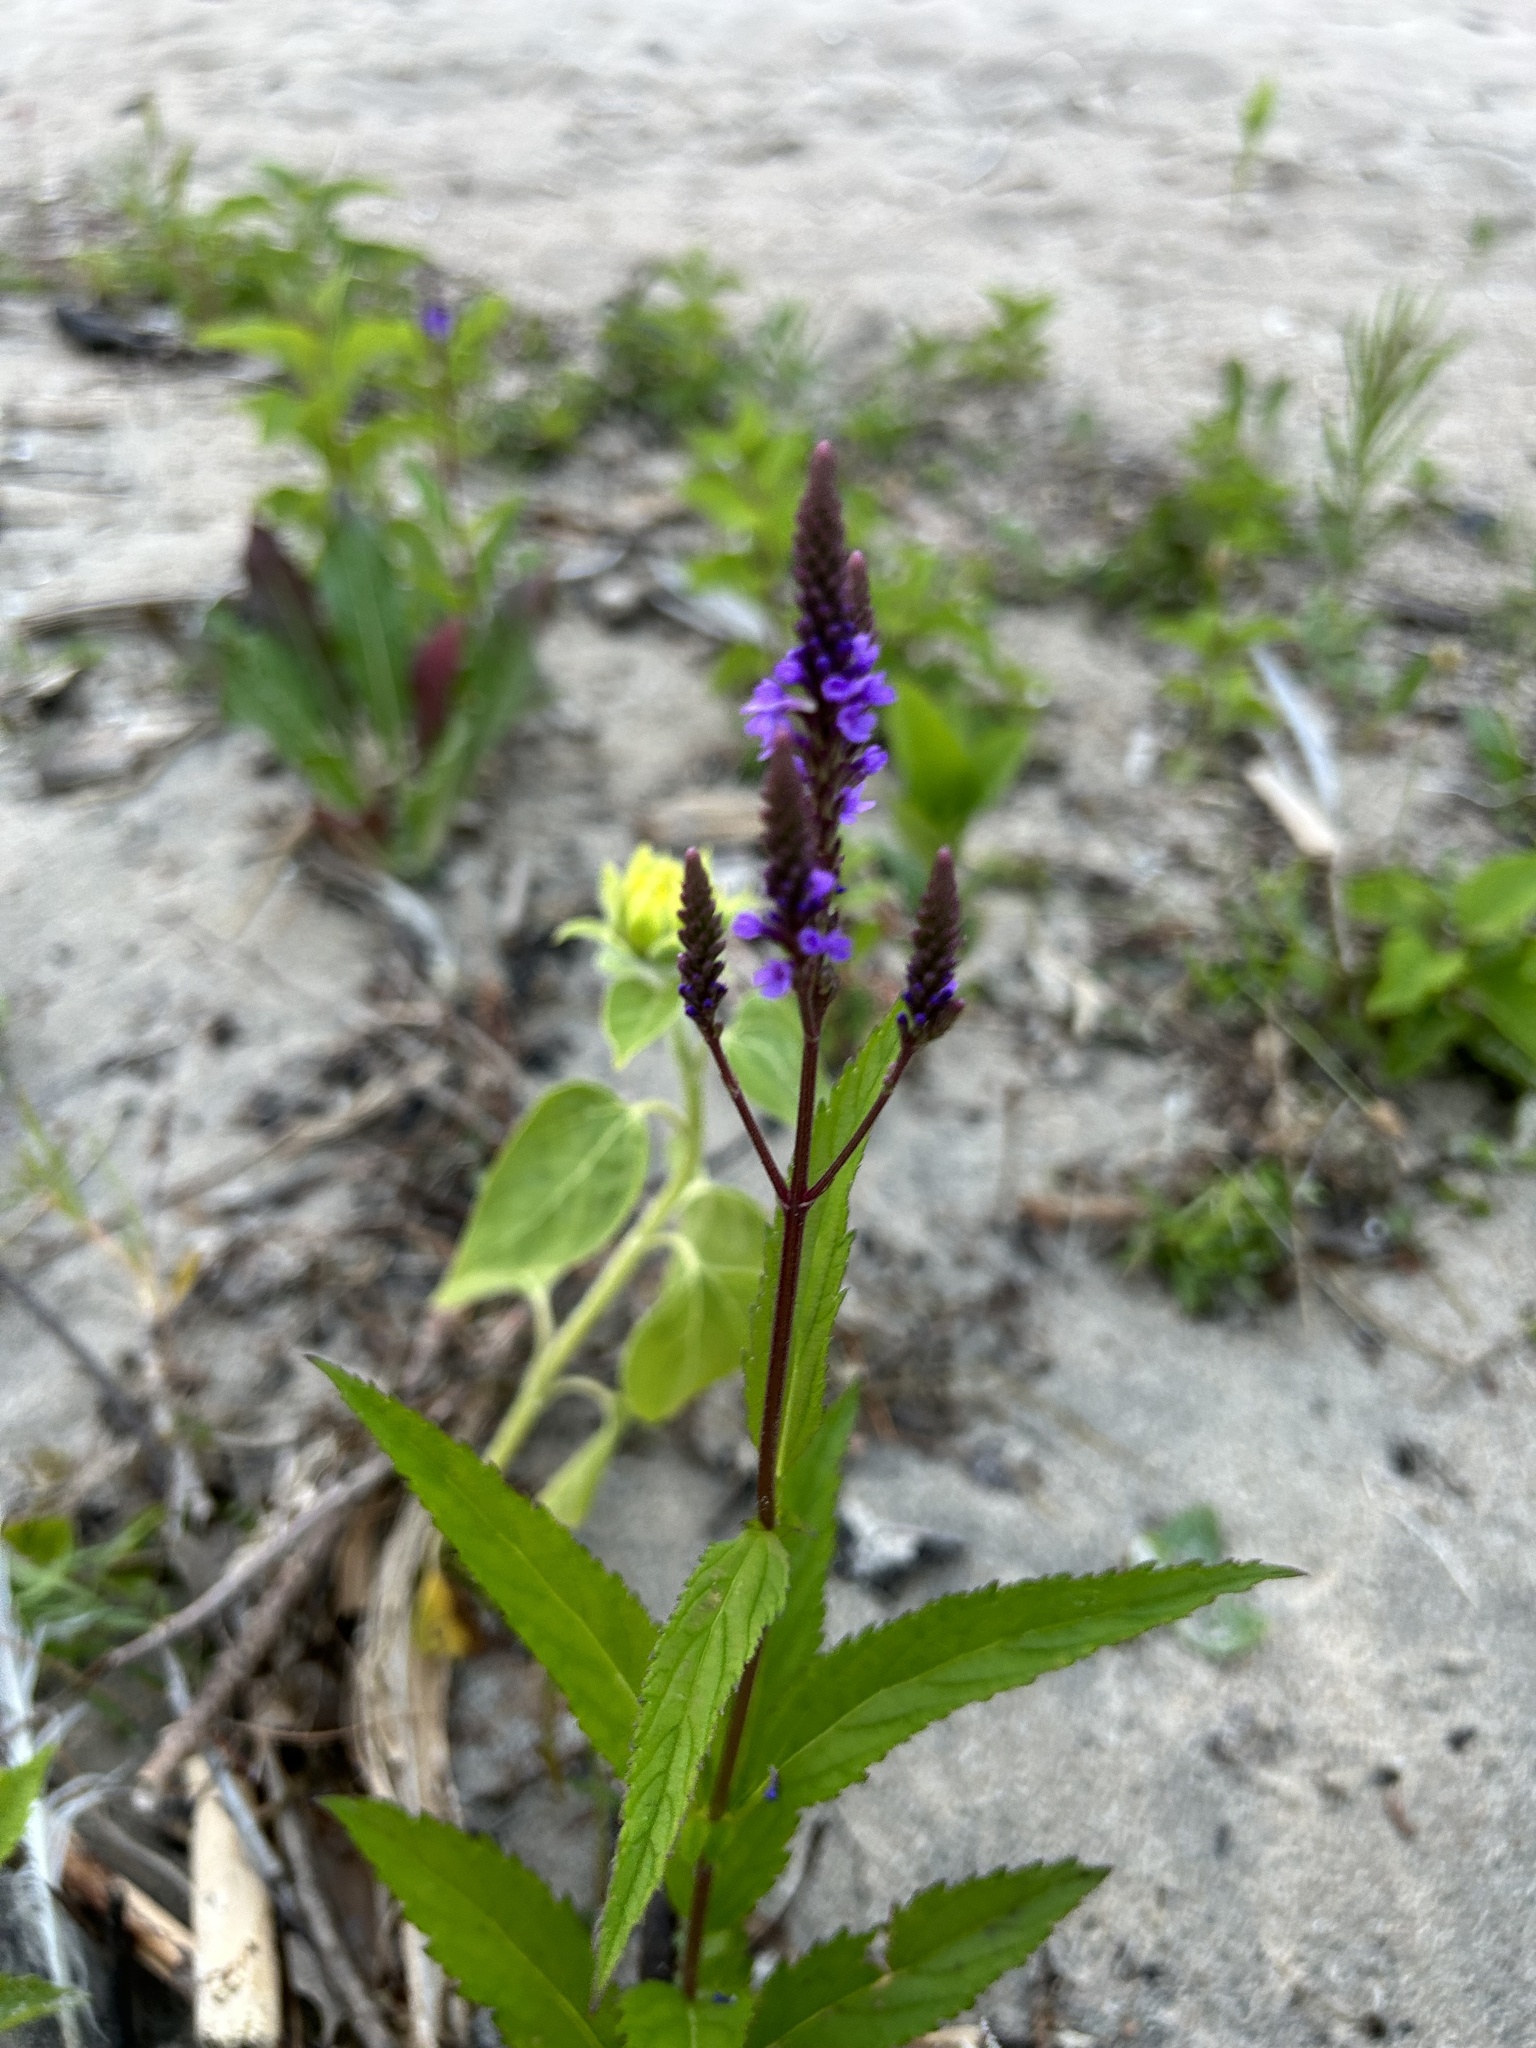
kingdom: Plantae
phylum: Tracheophyta
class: Magnoliopsida
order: Lamiales
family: Verbenaceae
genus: Verbena
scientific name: Verbena hastata
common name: American blue vervain
